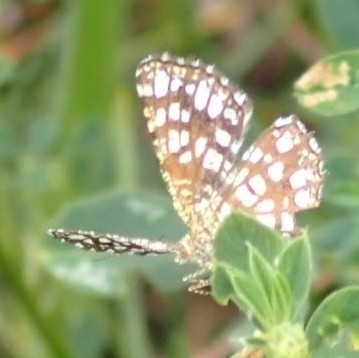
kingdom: Animalia
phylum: Arthropoda
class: Insecta
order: Lepidoptera
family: Geometridae
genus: Chiasmia
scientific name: Chiasmia clathrata
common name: Latticed heath
